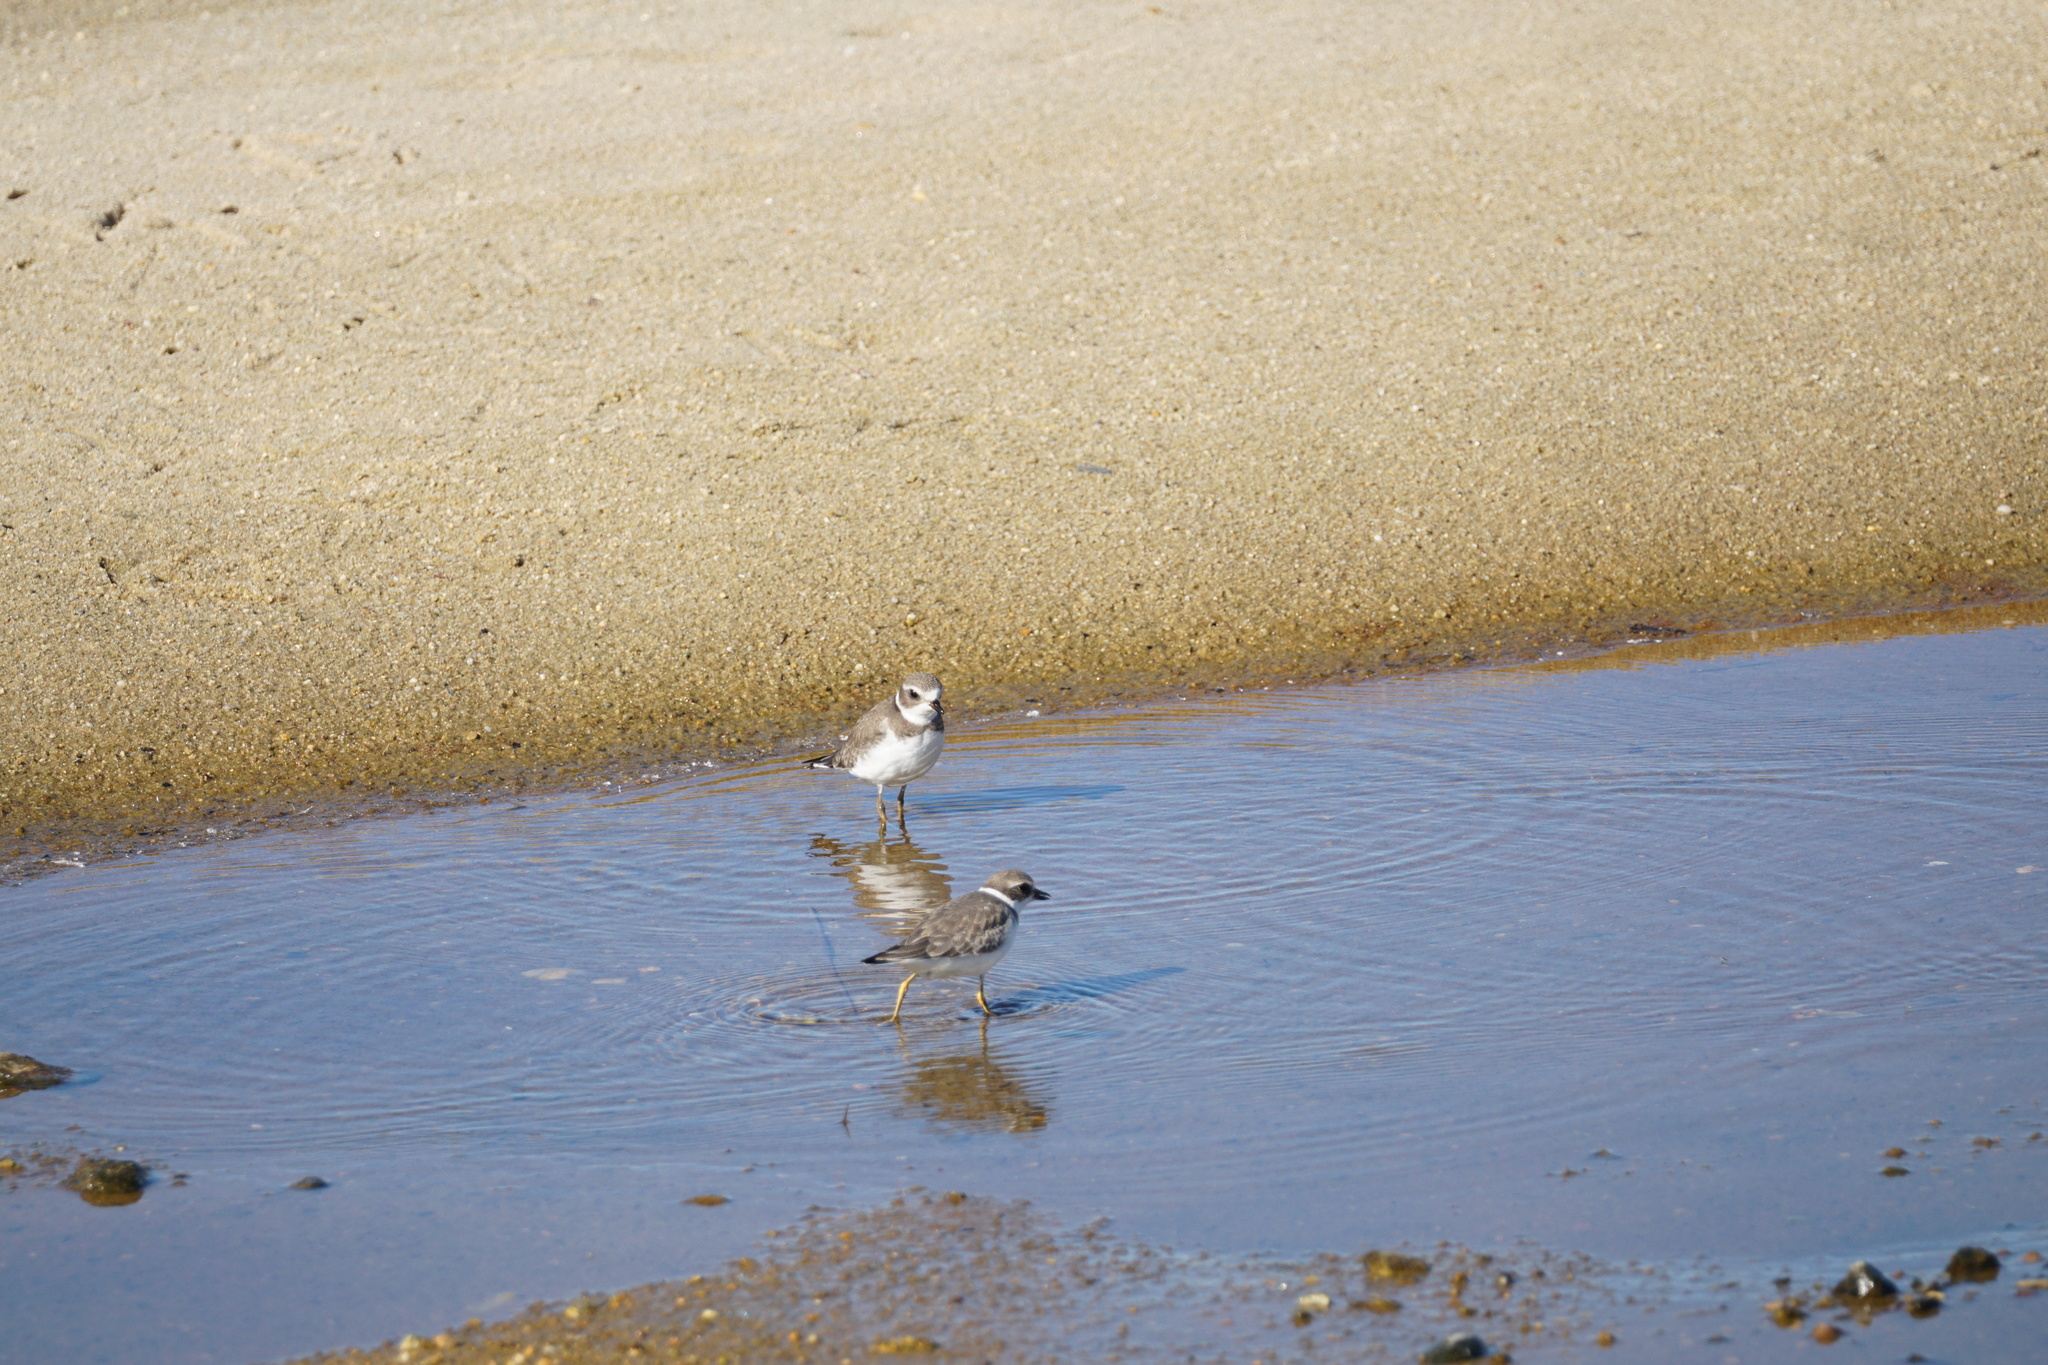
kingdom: Animalia
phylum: Chordata
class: Aves
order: Charadriiformes
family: Charadriidae
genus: Charadrius
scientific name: Charadrius semipalmatus
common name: Semipalmated plover
